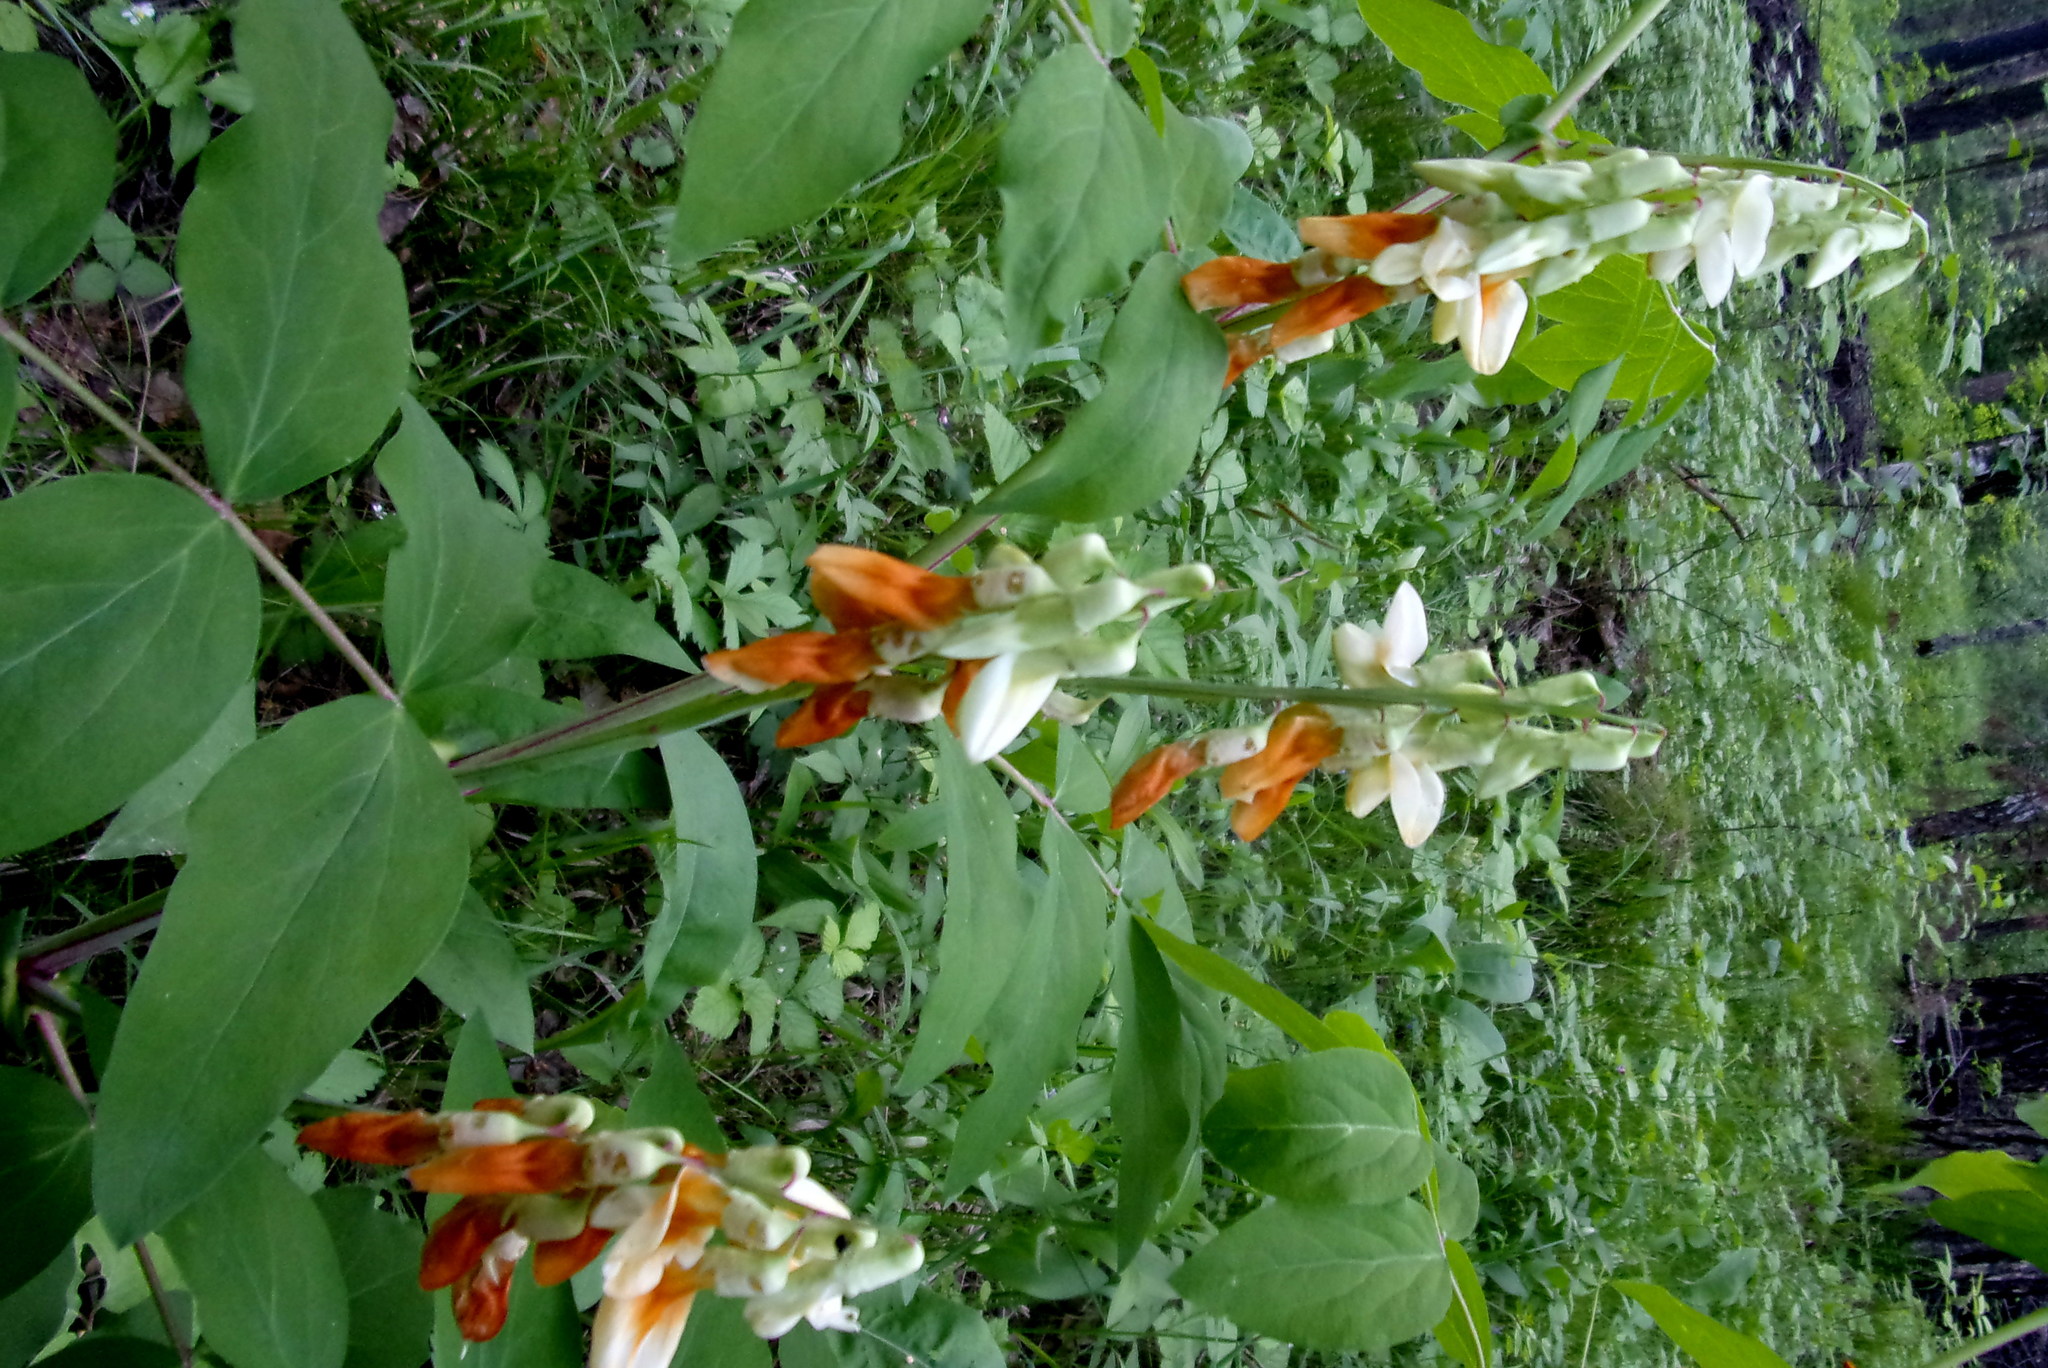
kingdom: Plantae
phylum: Tracheophyta
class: Magnoliopsida
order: Fabales
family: Fabaceae
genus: Lathyrus
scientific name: Lathyrus gmelinii
